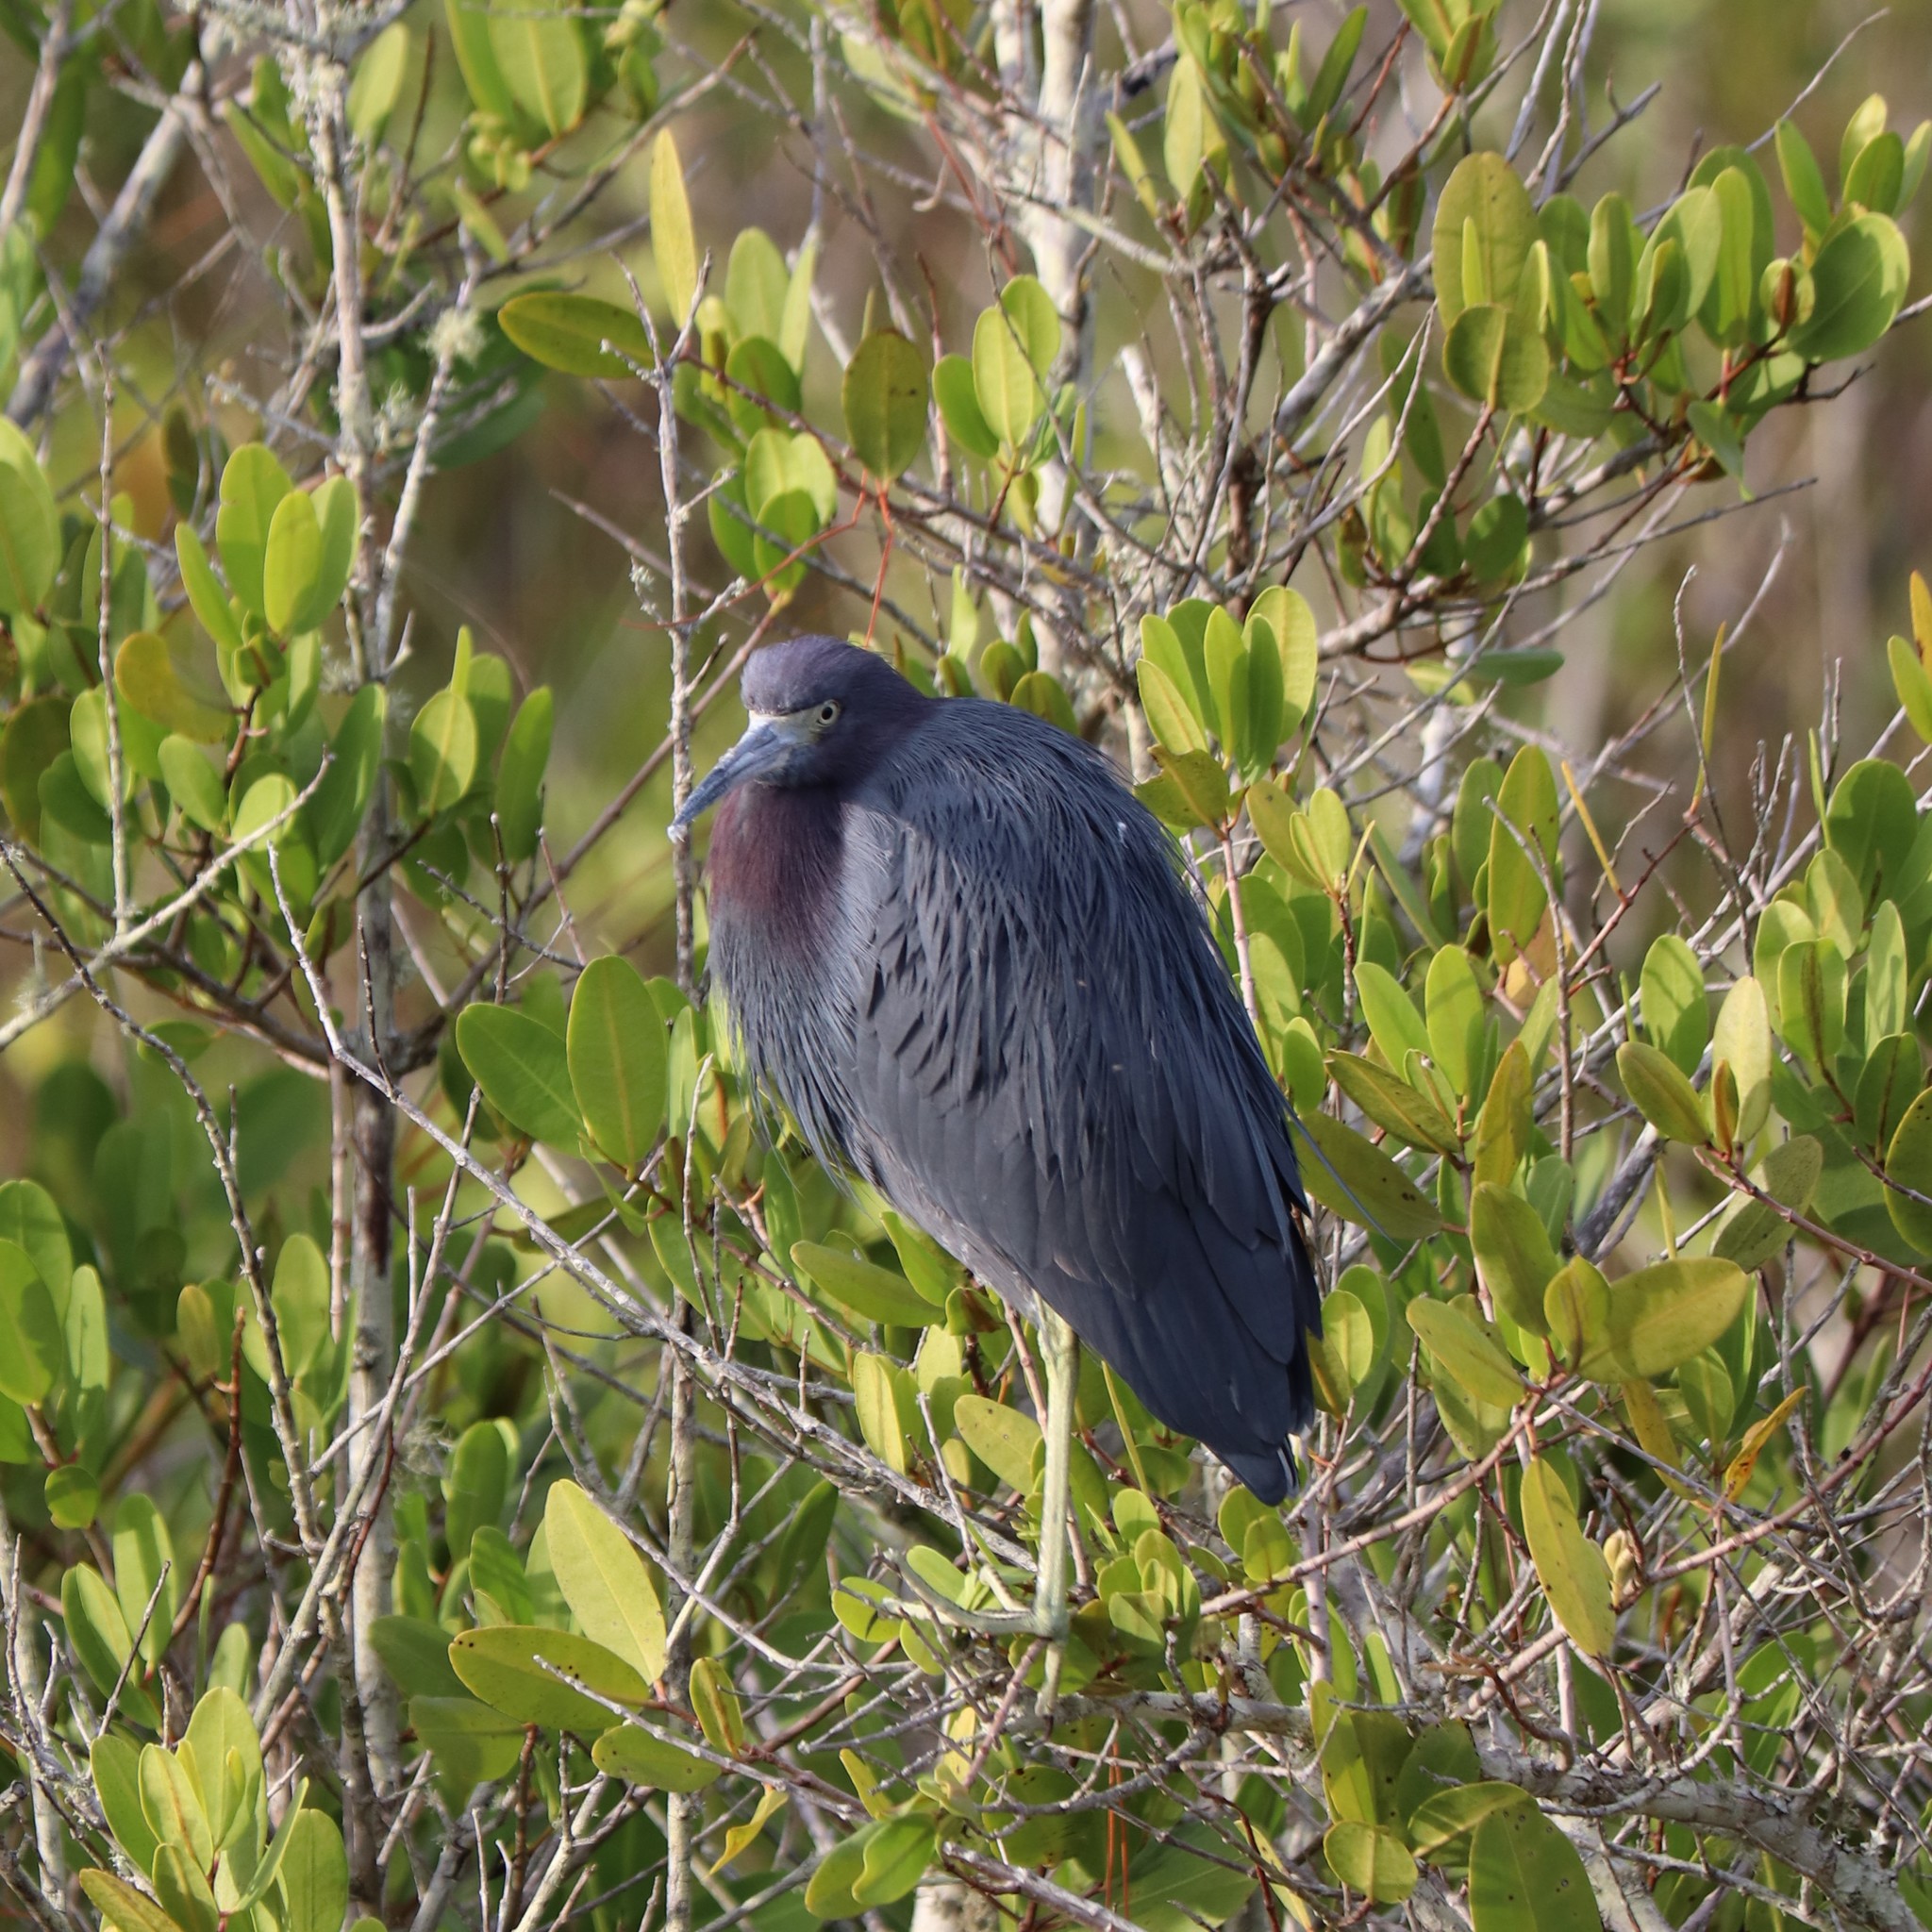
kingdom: Animalia
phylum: Chordata
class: Aves
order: Pelecaniformes
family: Ardeidae
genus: Egretta
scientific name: Egretta caerulea
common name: Little blue heron
